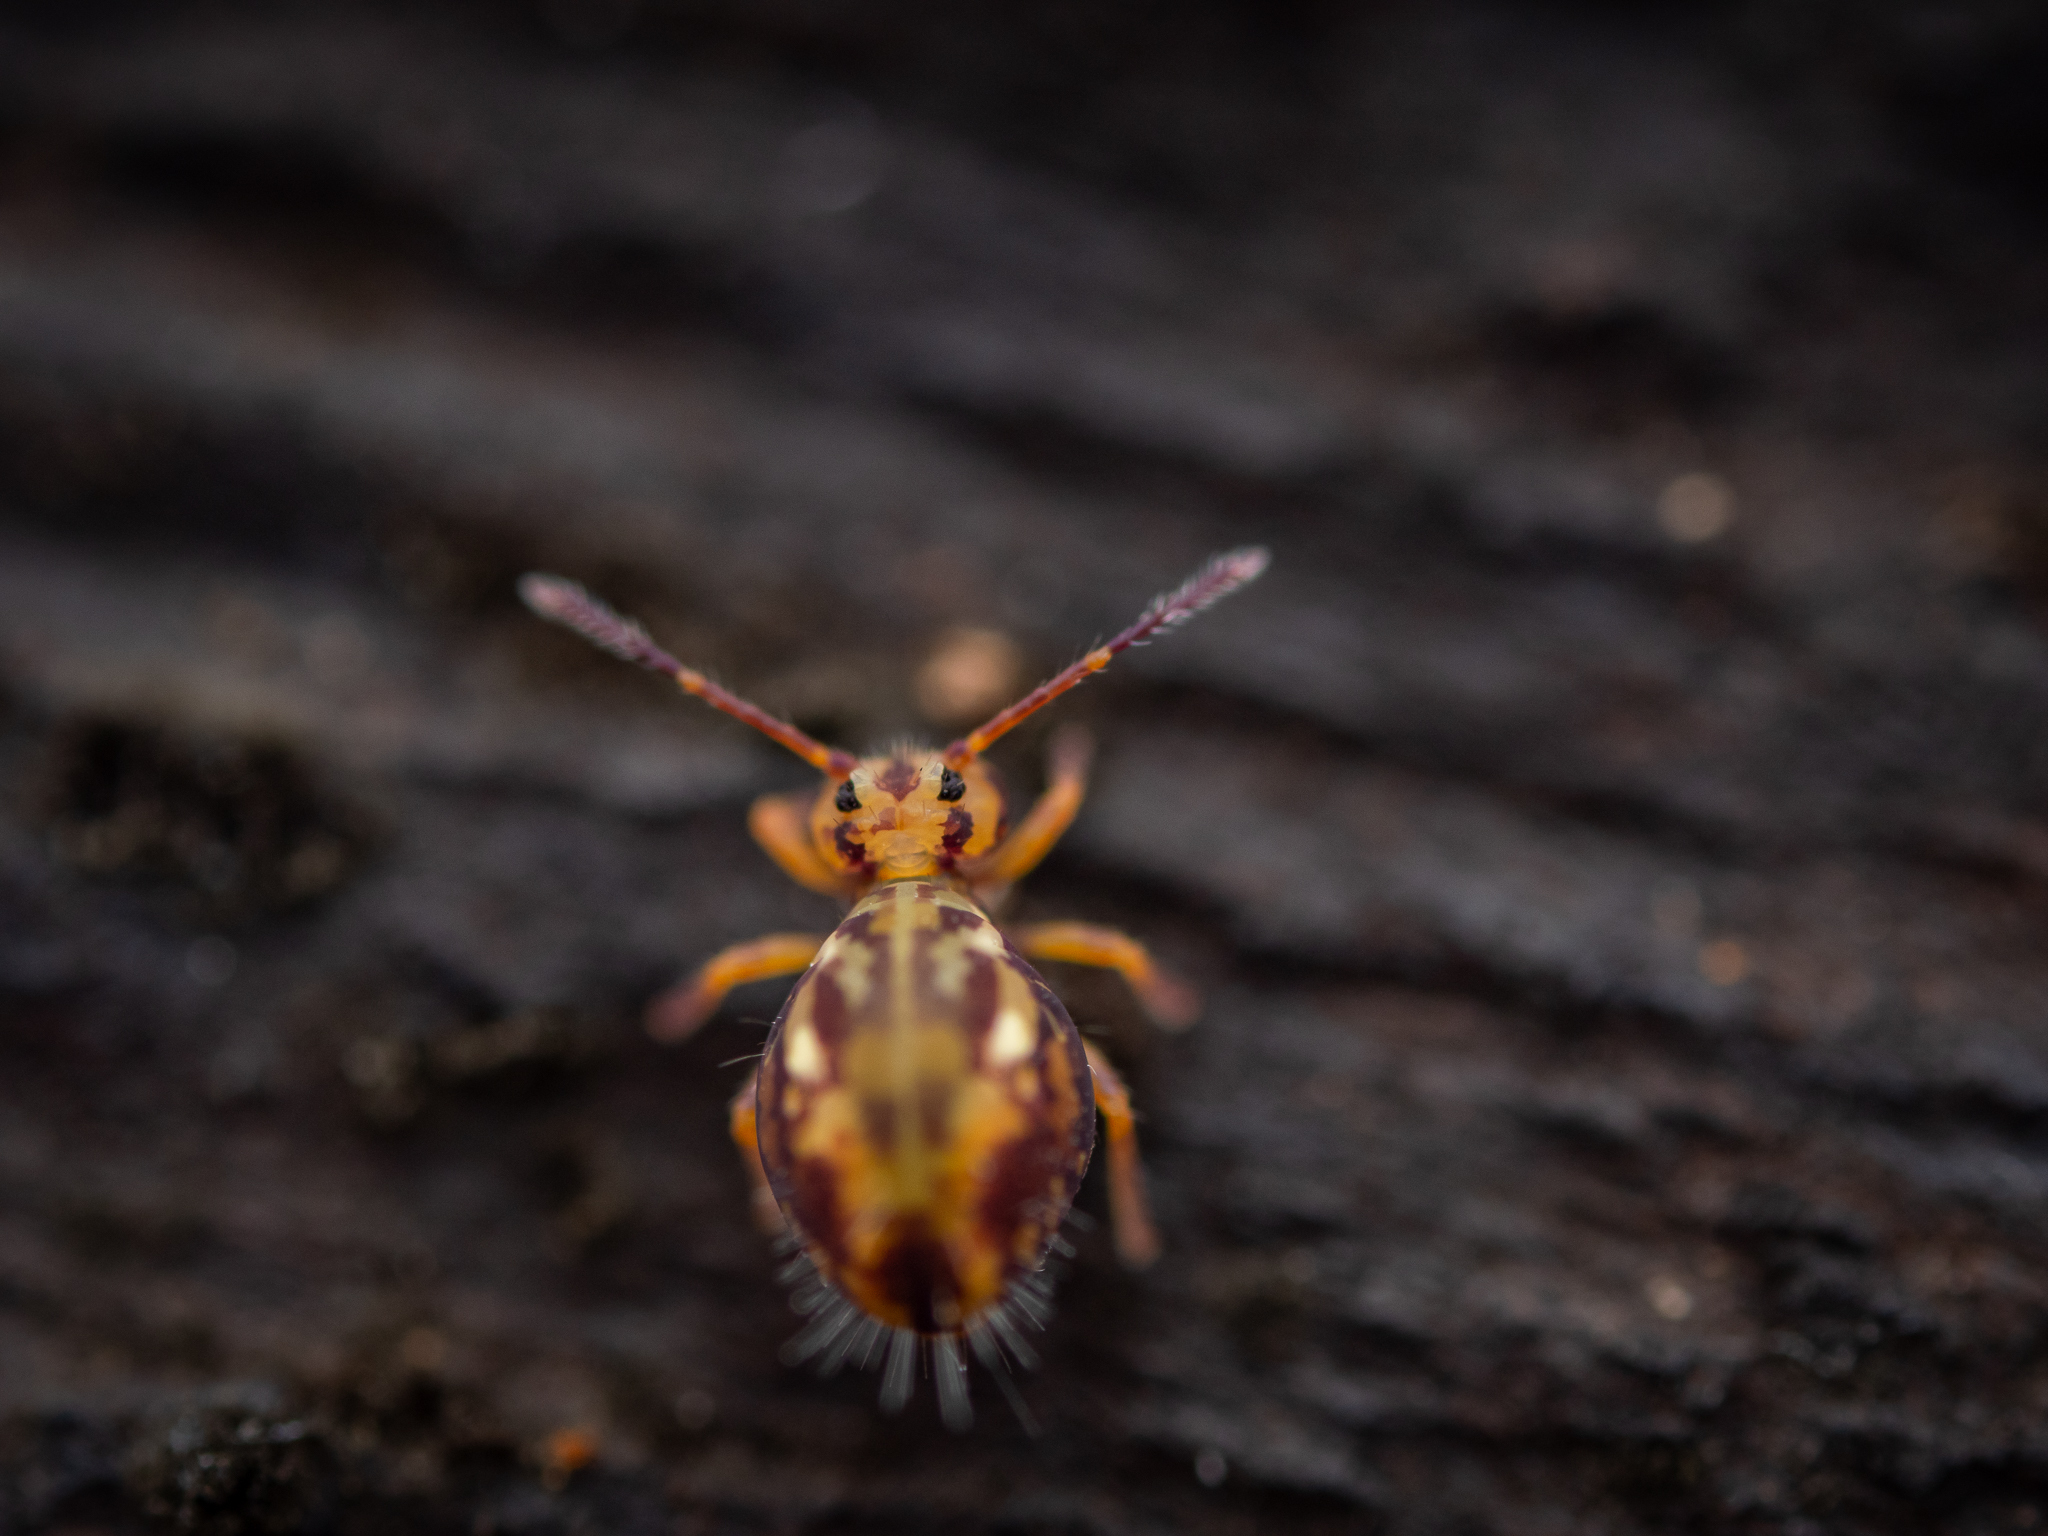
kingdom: Animalia
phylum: Arthropoda
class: Collembola
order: Symphypleona
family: Dicyrtomidae
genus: Dicyrtomina
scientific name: Dicyrtomina saundersi
